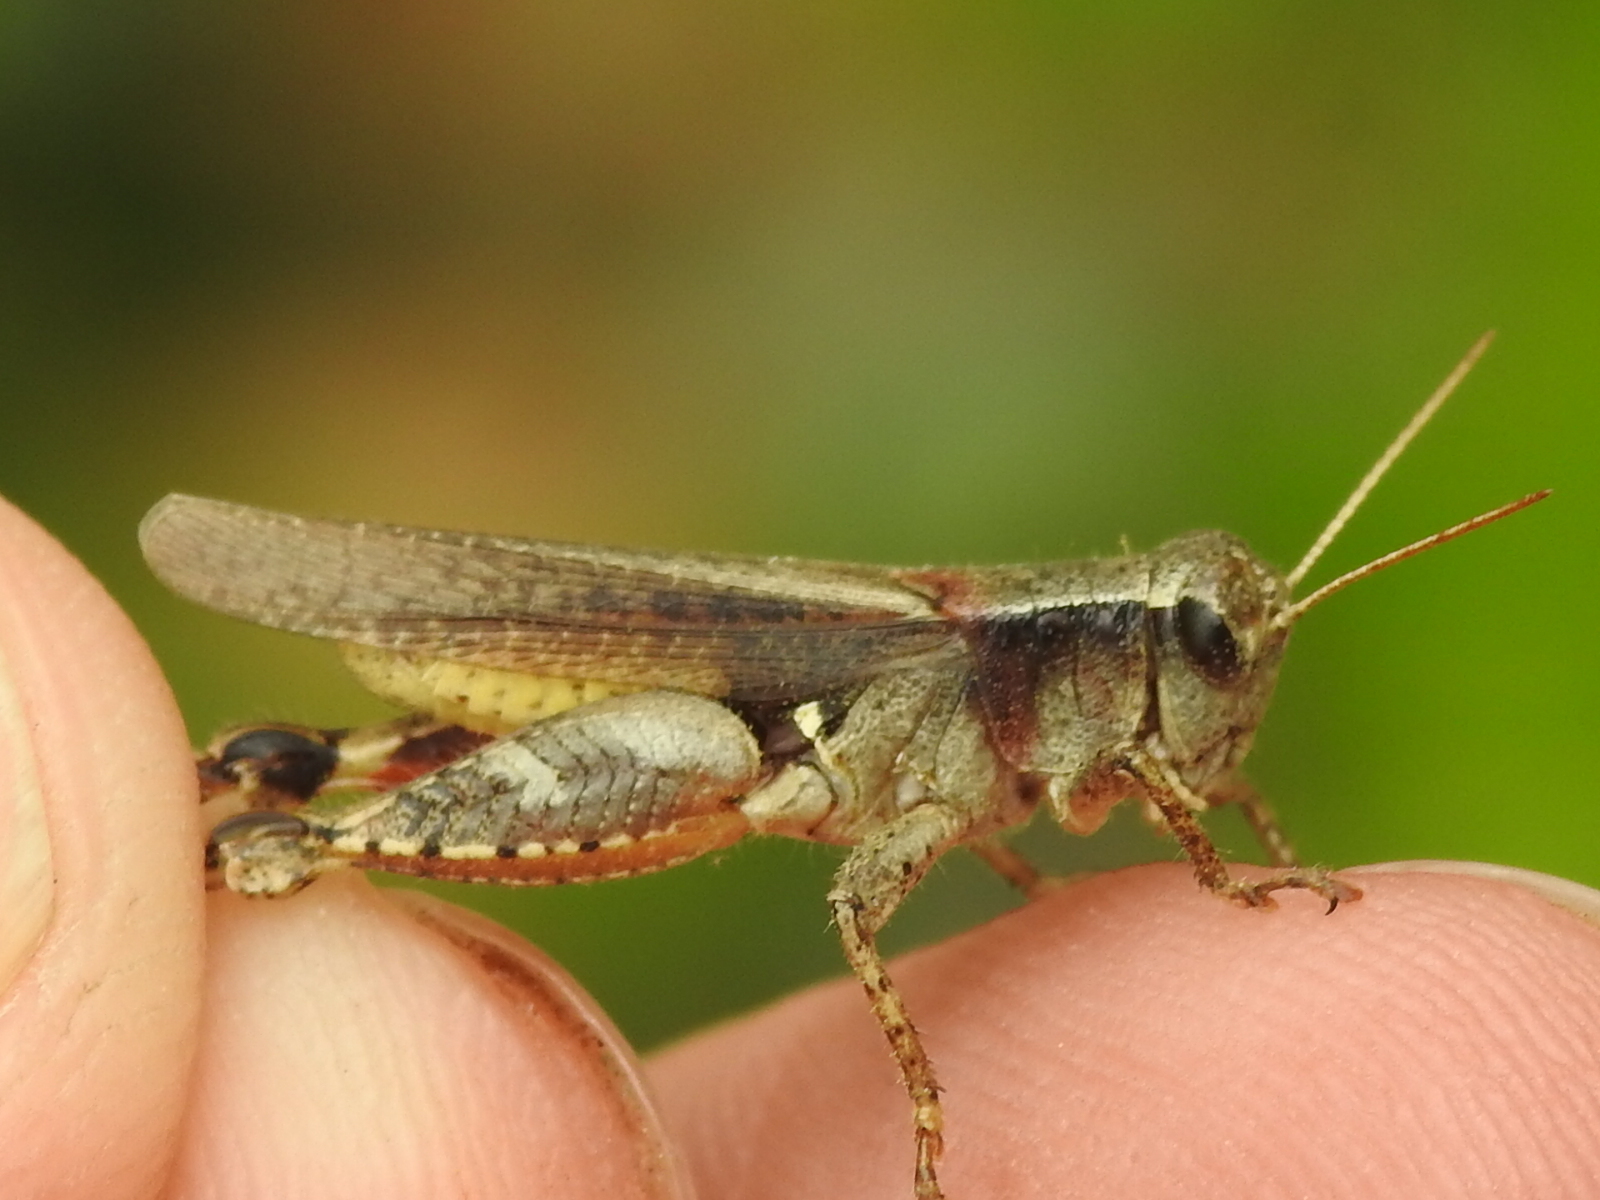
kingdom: Animalia
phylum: Arthropoda
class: Insecta
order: Orthoptera
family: Acrididae
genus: Aidemona
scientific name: Aidemona azteca
